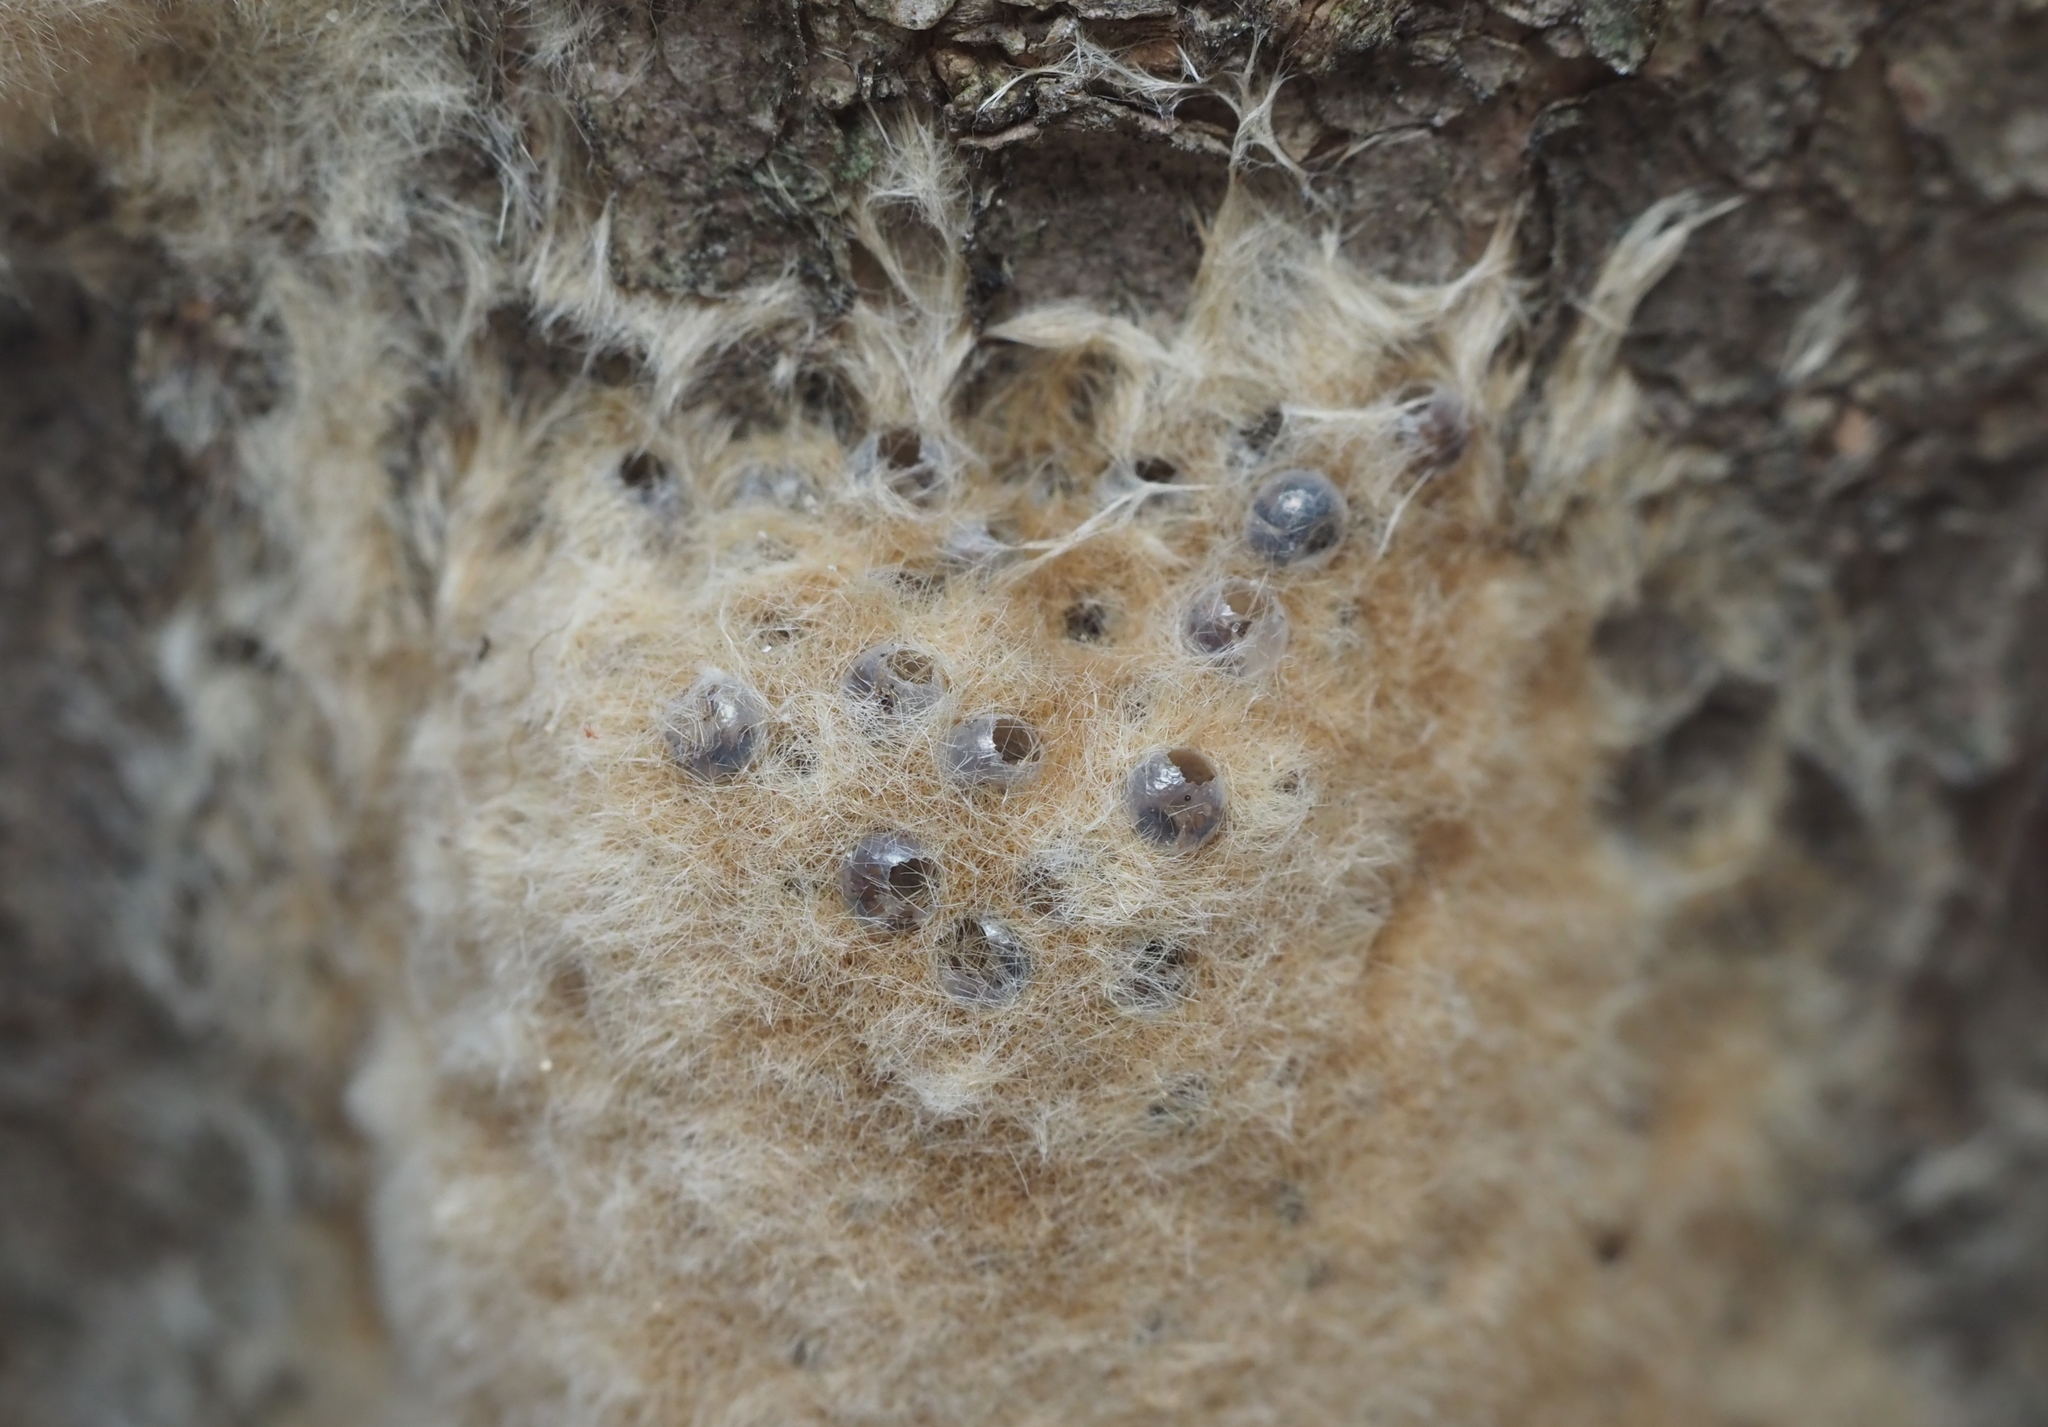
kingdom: Animalia
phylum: Arthropoda
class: Insecta
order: Lepidoptera
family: Erebidae
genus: Lymantria
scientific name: Lymantria dispar
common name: Gypsy moth
